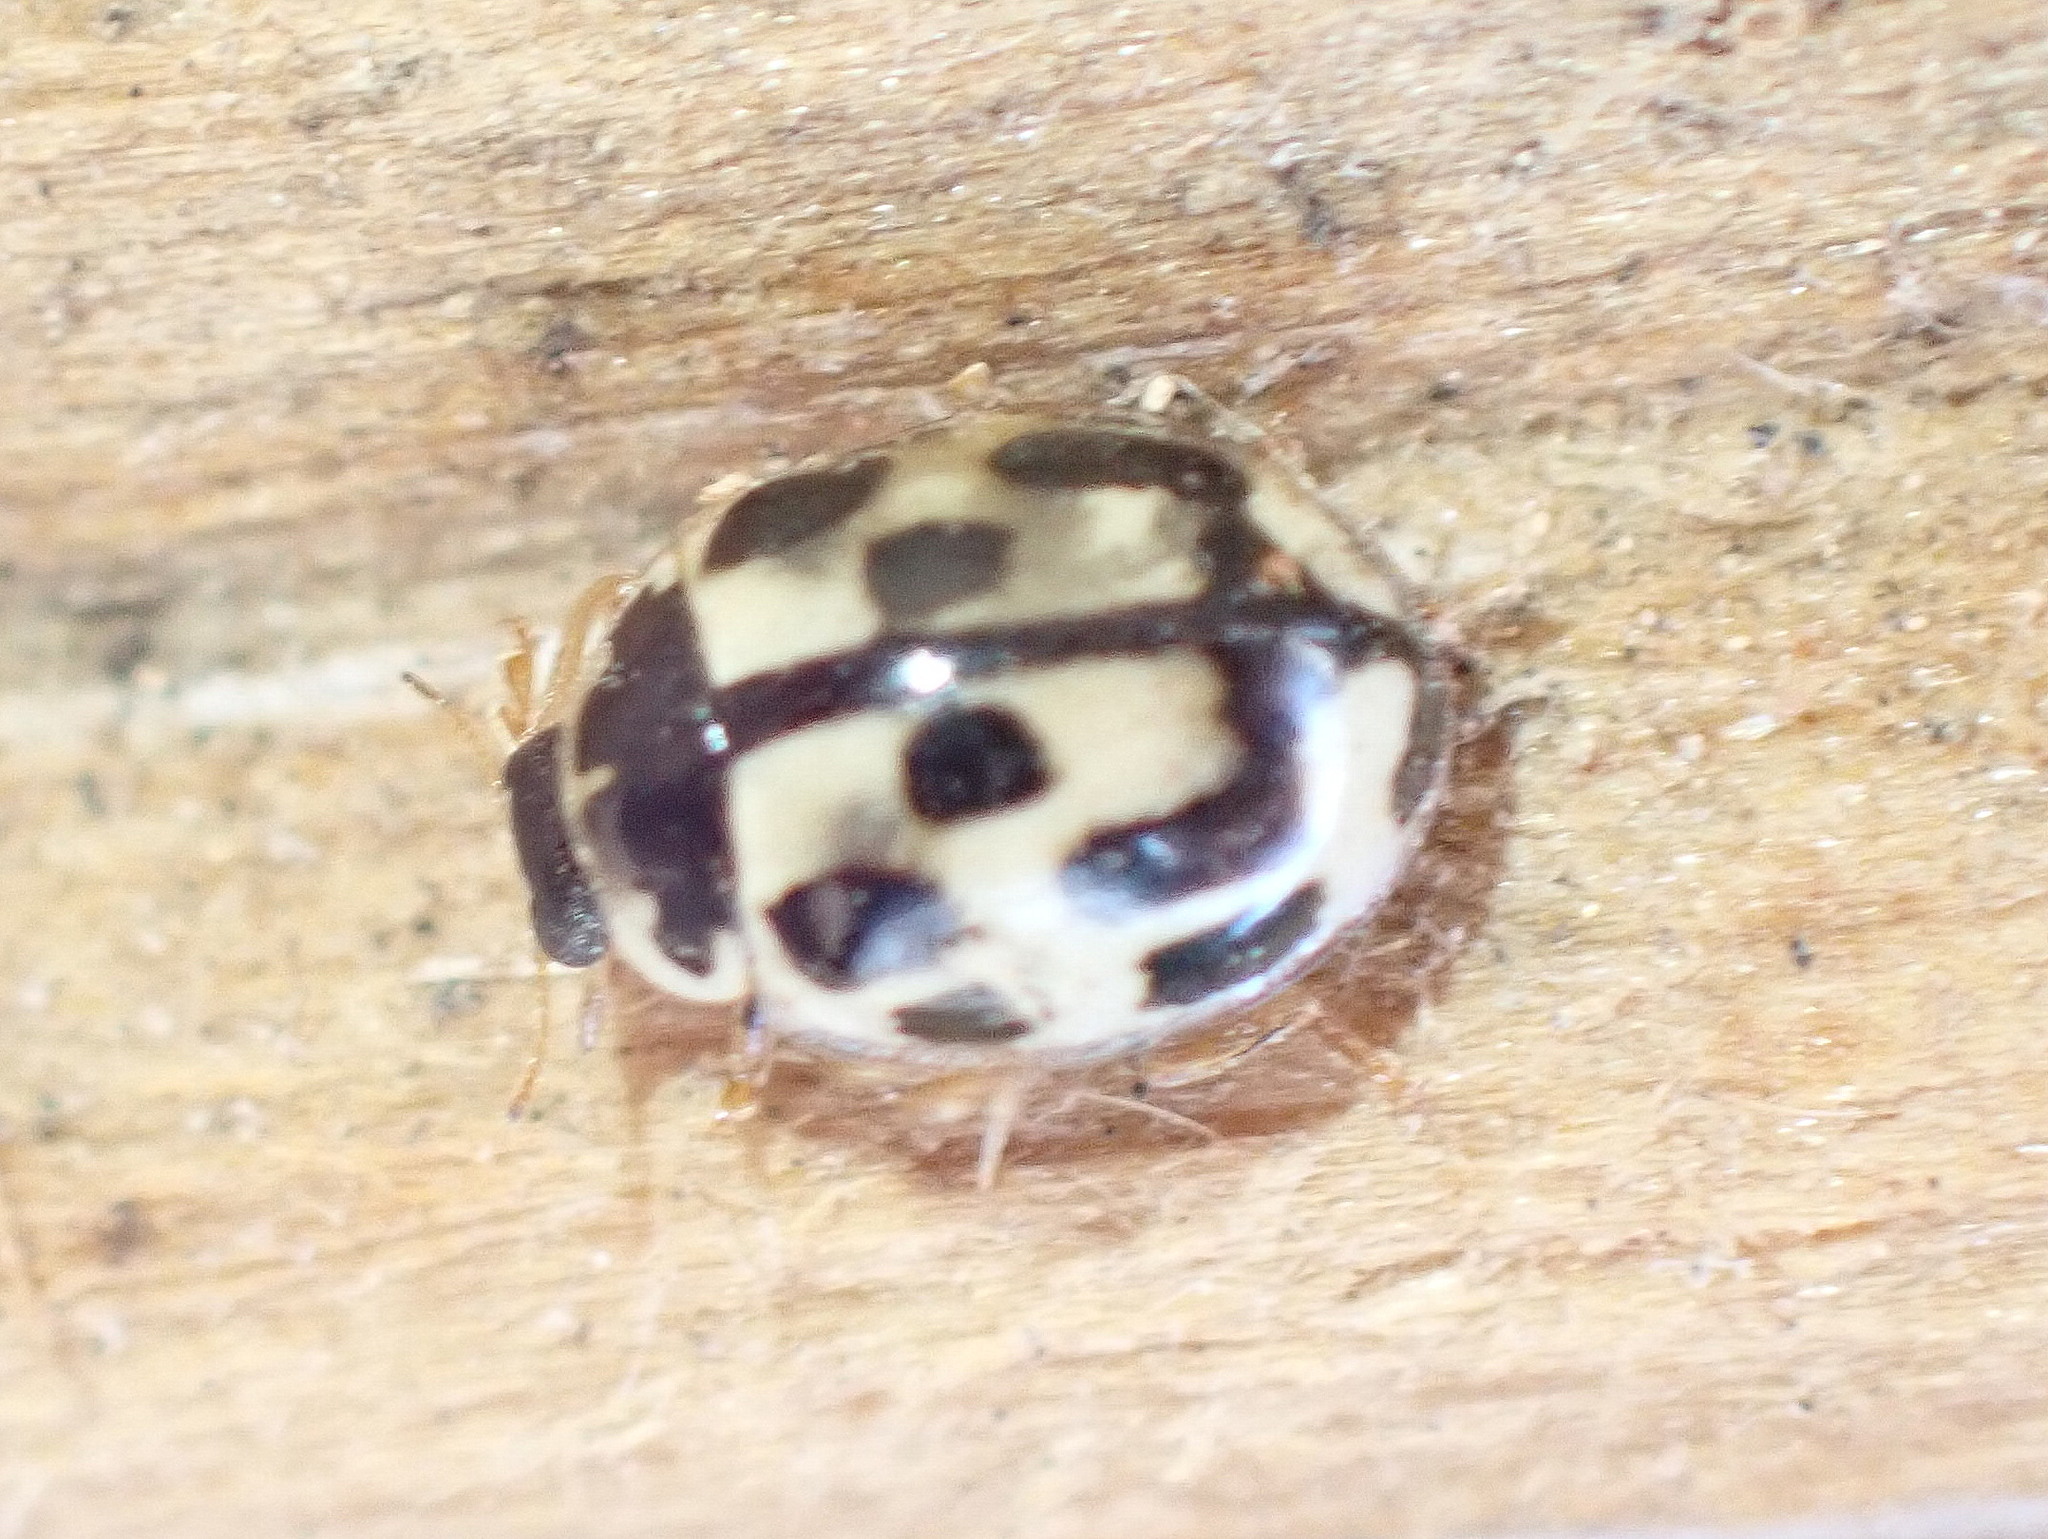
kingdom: Animalia
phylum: Arthropoda
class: Insecta
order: Coleoptera
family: Coccinellidae
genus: Propylaea
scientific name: Propylaea quatuordecimpunctata
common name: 14-spotted ladybird beetle
